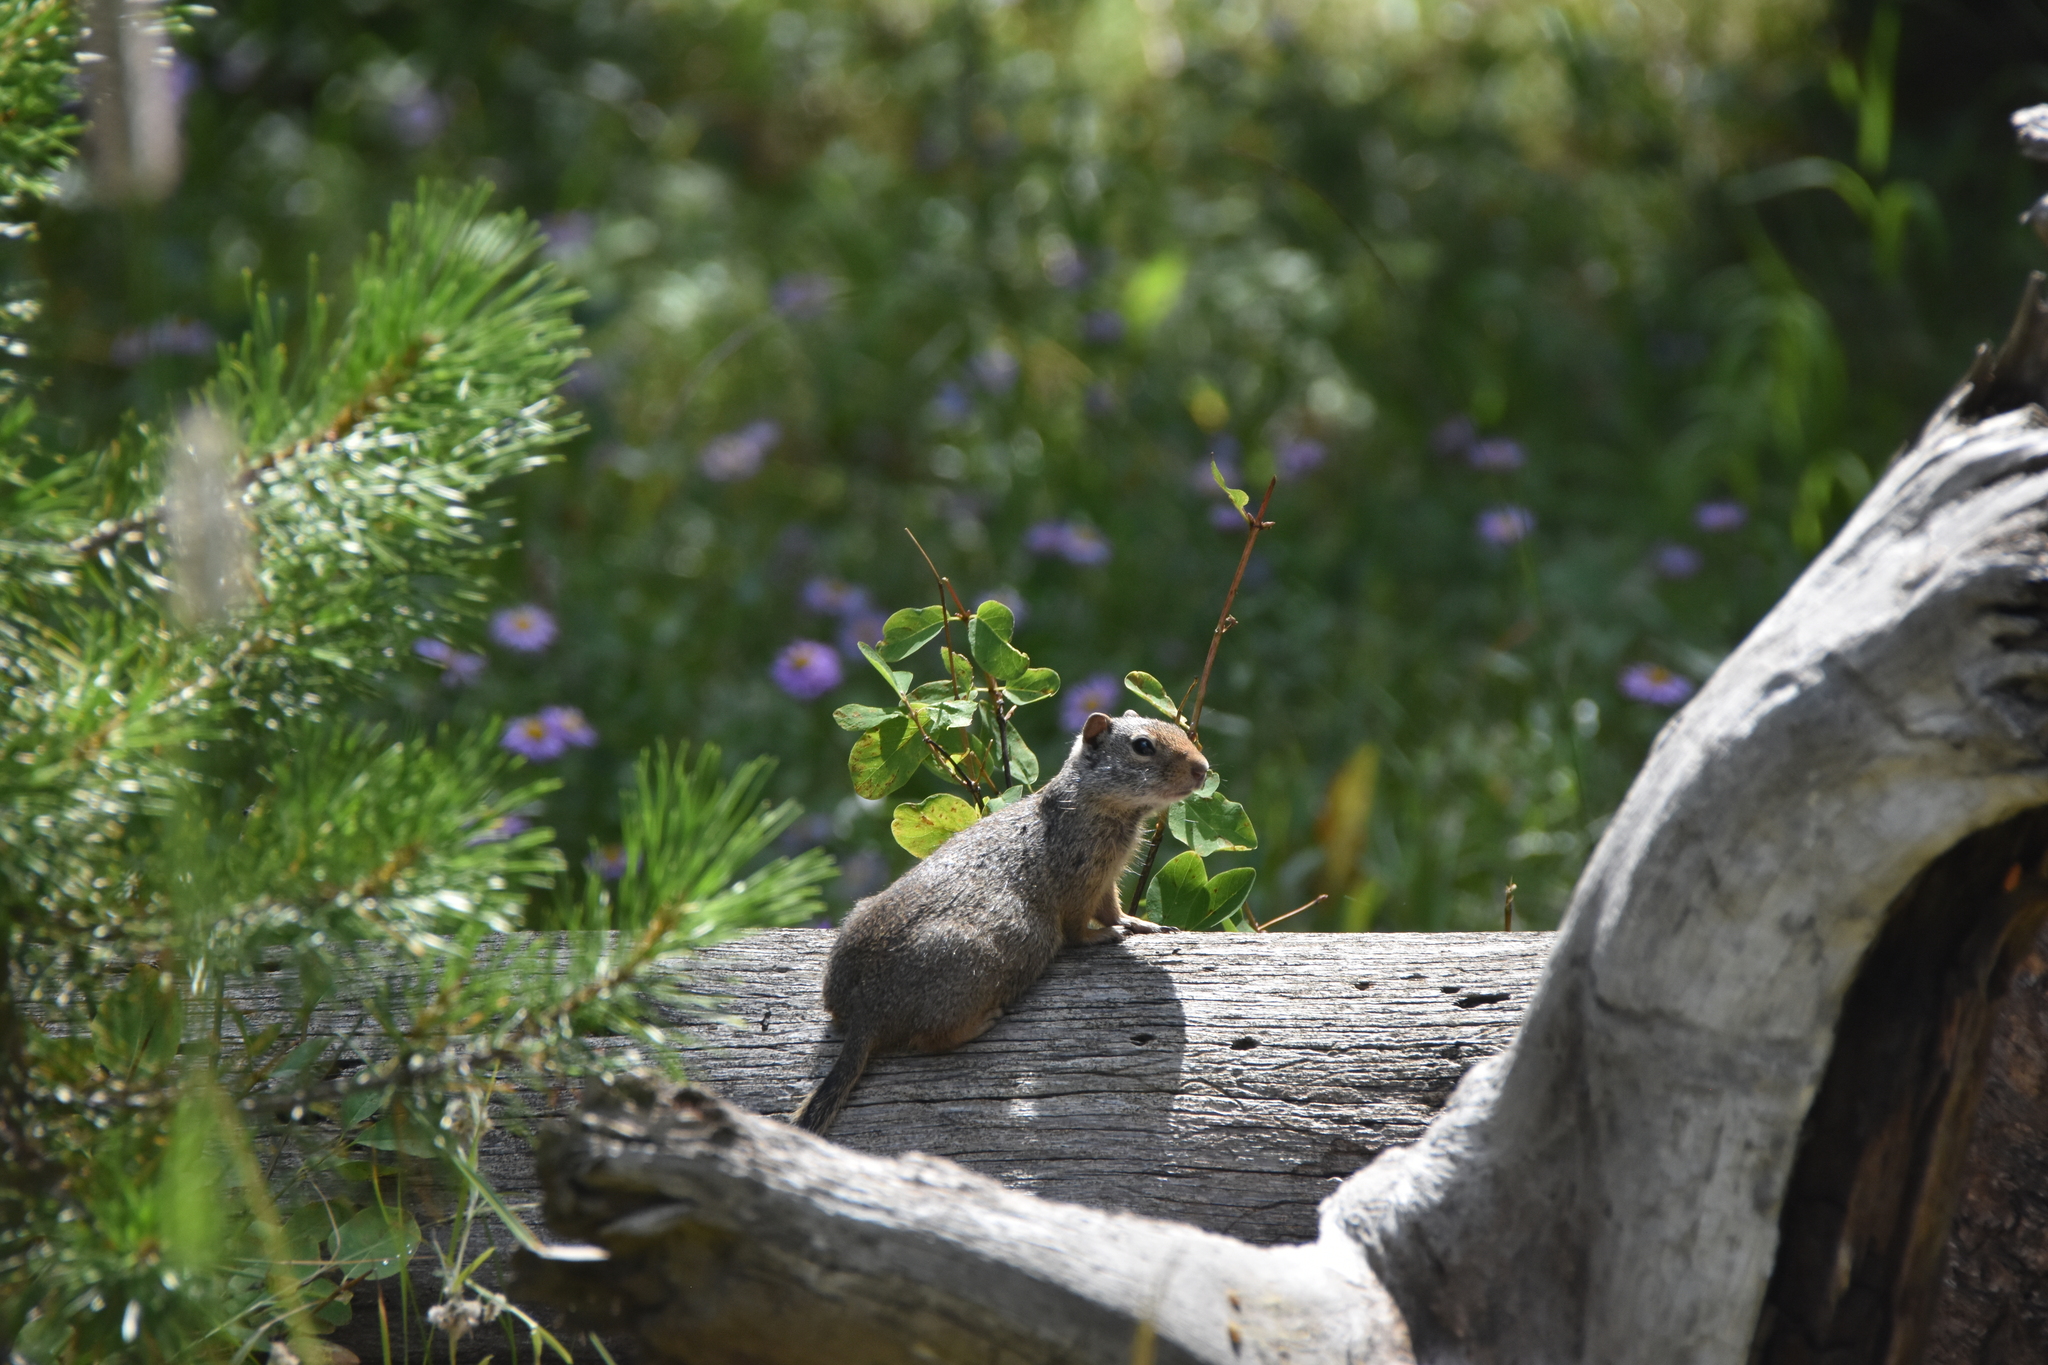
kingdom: Animalia
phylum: Chordata
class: Mammalia
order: Rodentia
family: Sciuridae
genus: Urocitellus
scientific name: Urocitellus armatus
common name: Uinta ground squirrel
